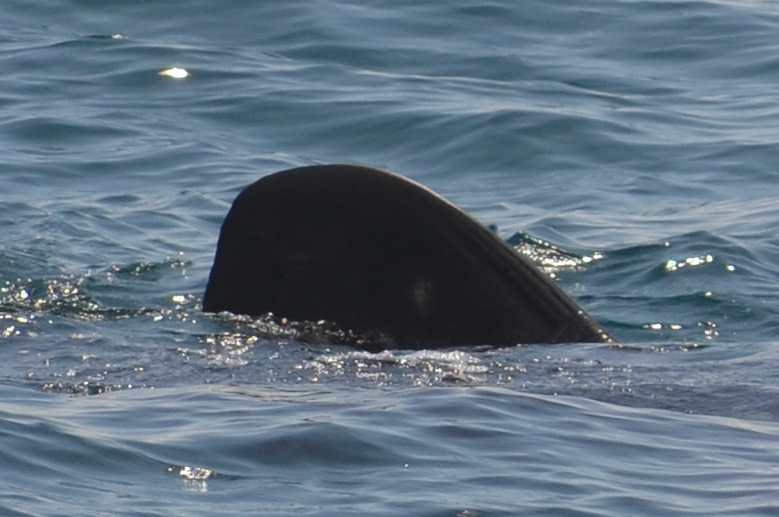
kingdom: Animalia
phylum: Chordata
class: Elasmobranchii
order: Orectolobiformes
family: Rhincodontidae
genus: Rhincodon
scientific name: Rhincodon typus
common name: Whale shark
